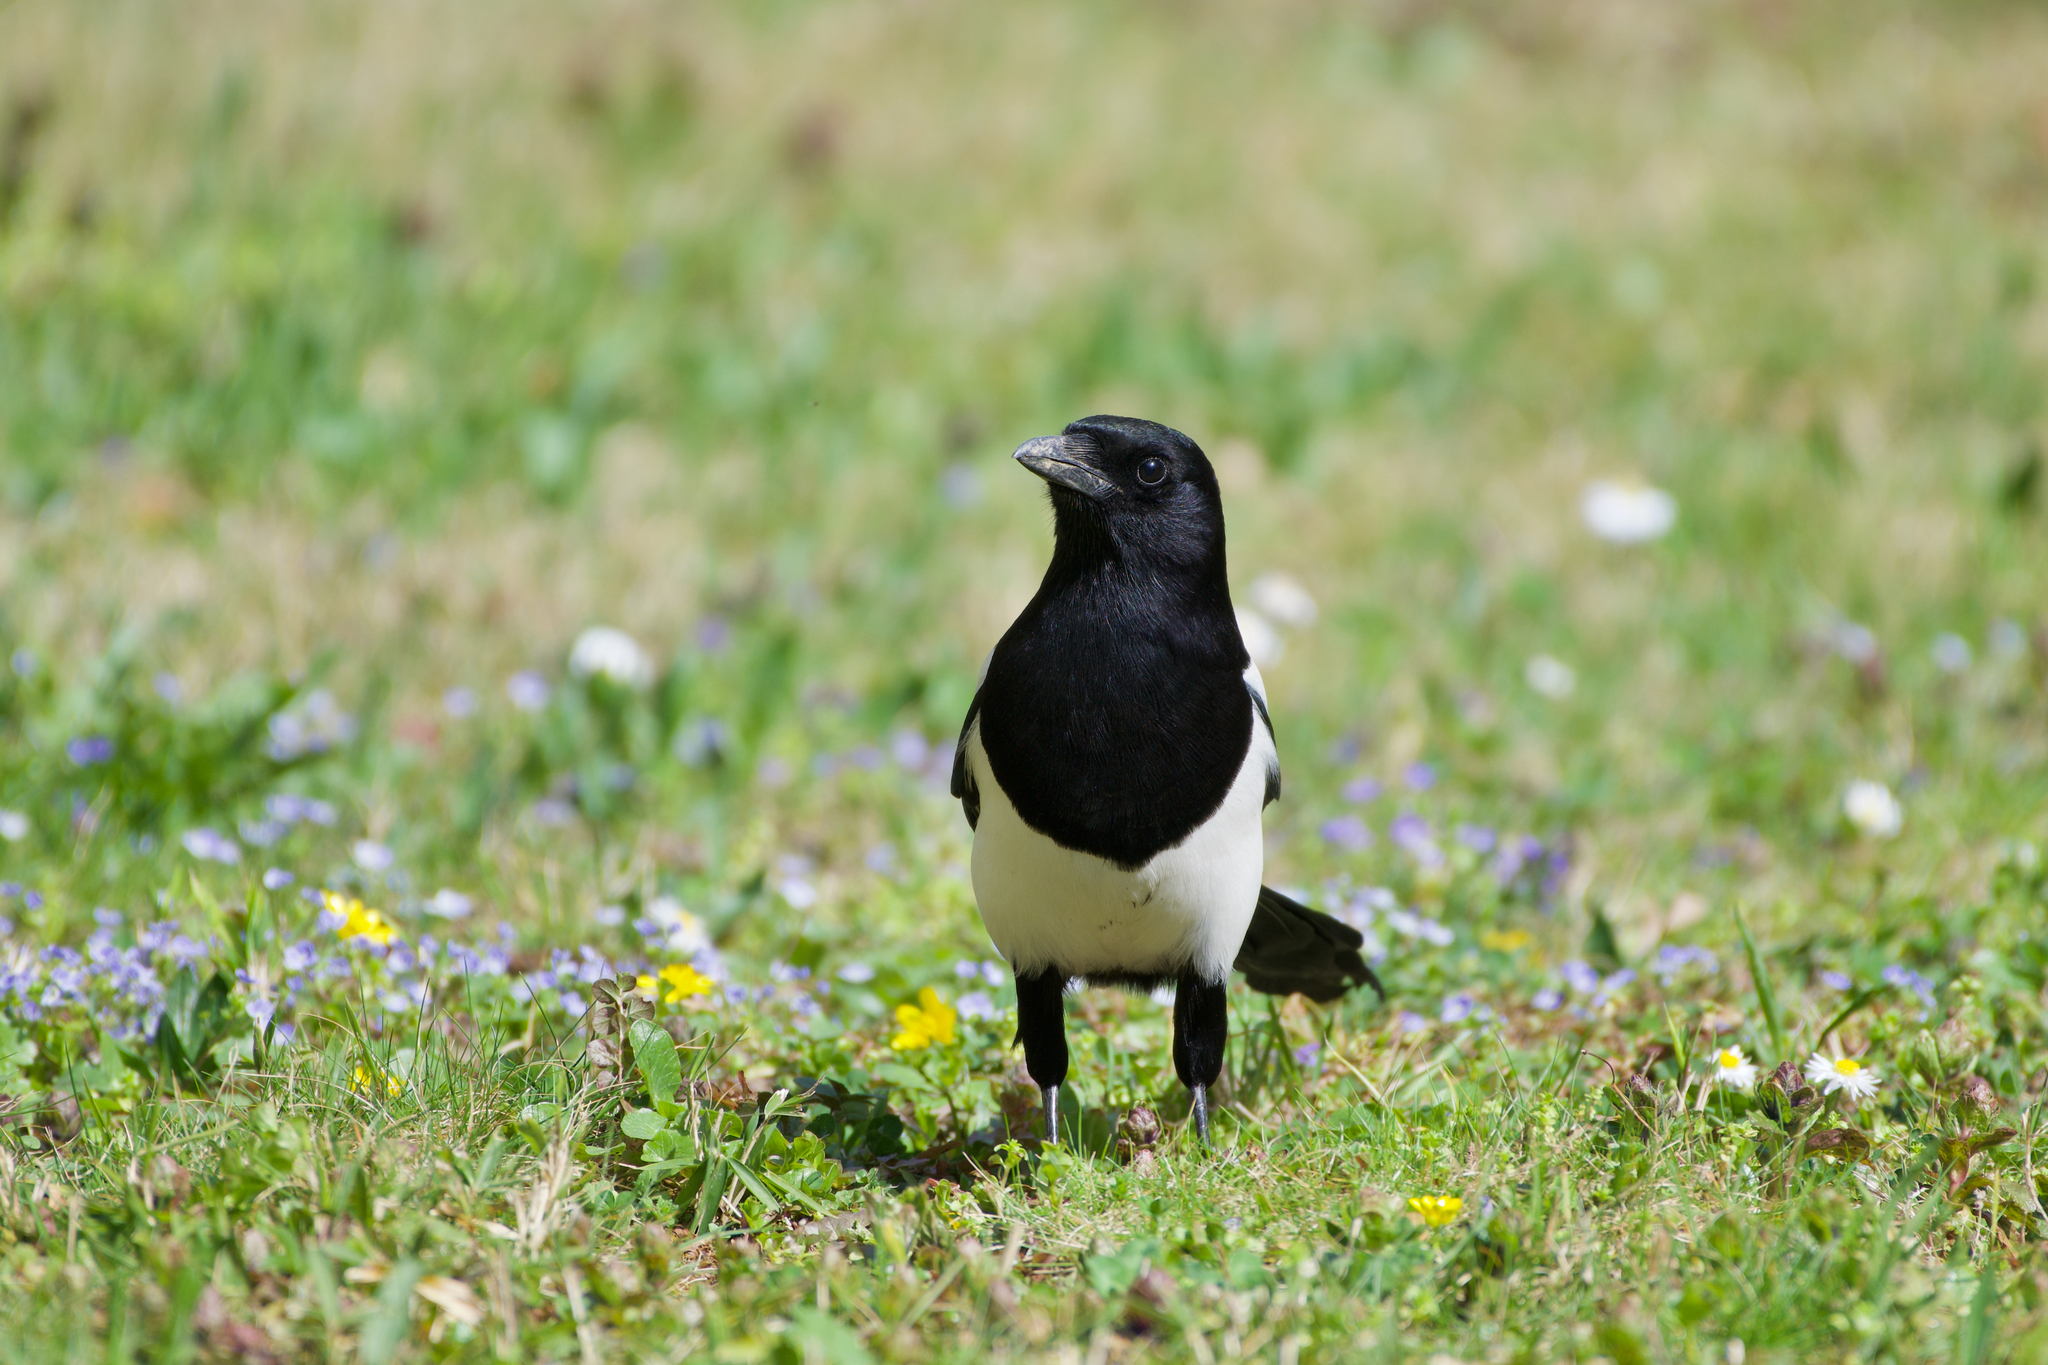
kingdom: Animalia
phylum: Chordata
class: Aves
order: Passeriformes
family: Corvidae
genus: Pica
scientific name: Pica pica
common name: Eurasian magpie
